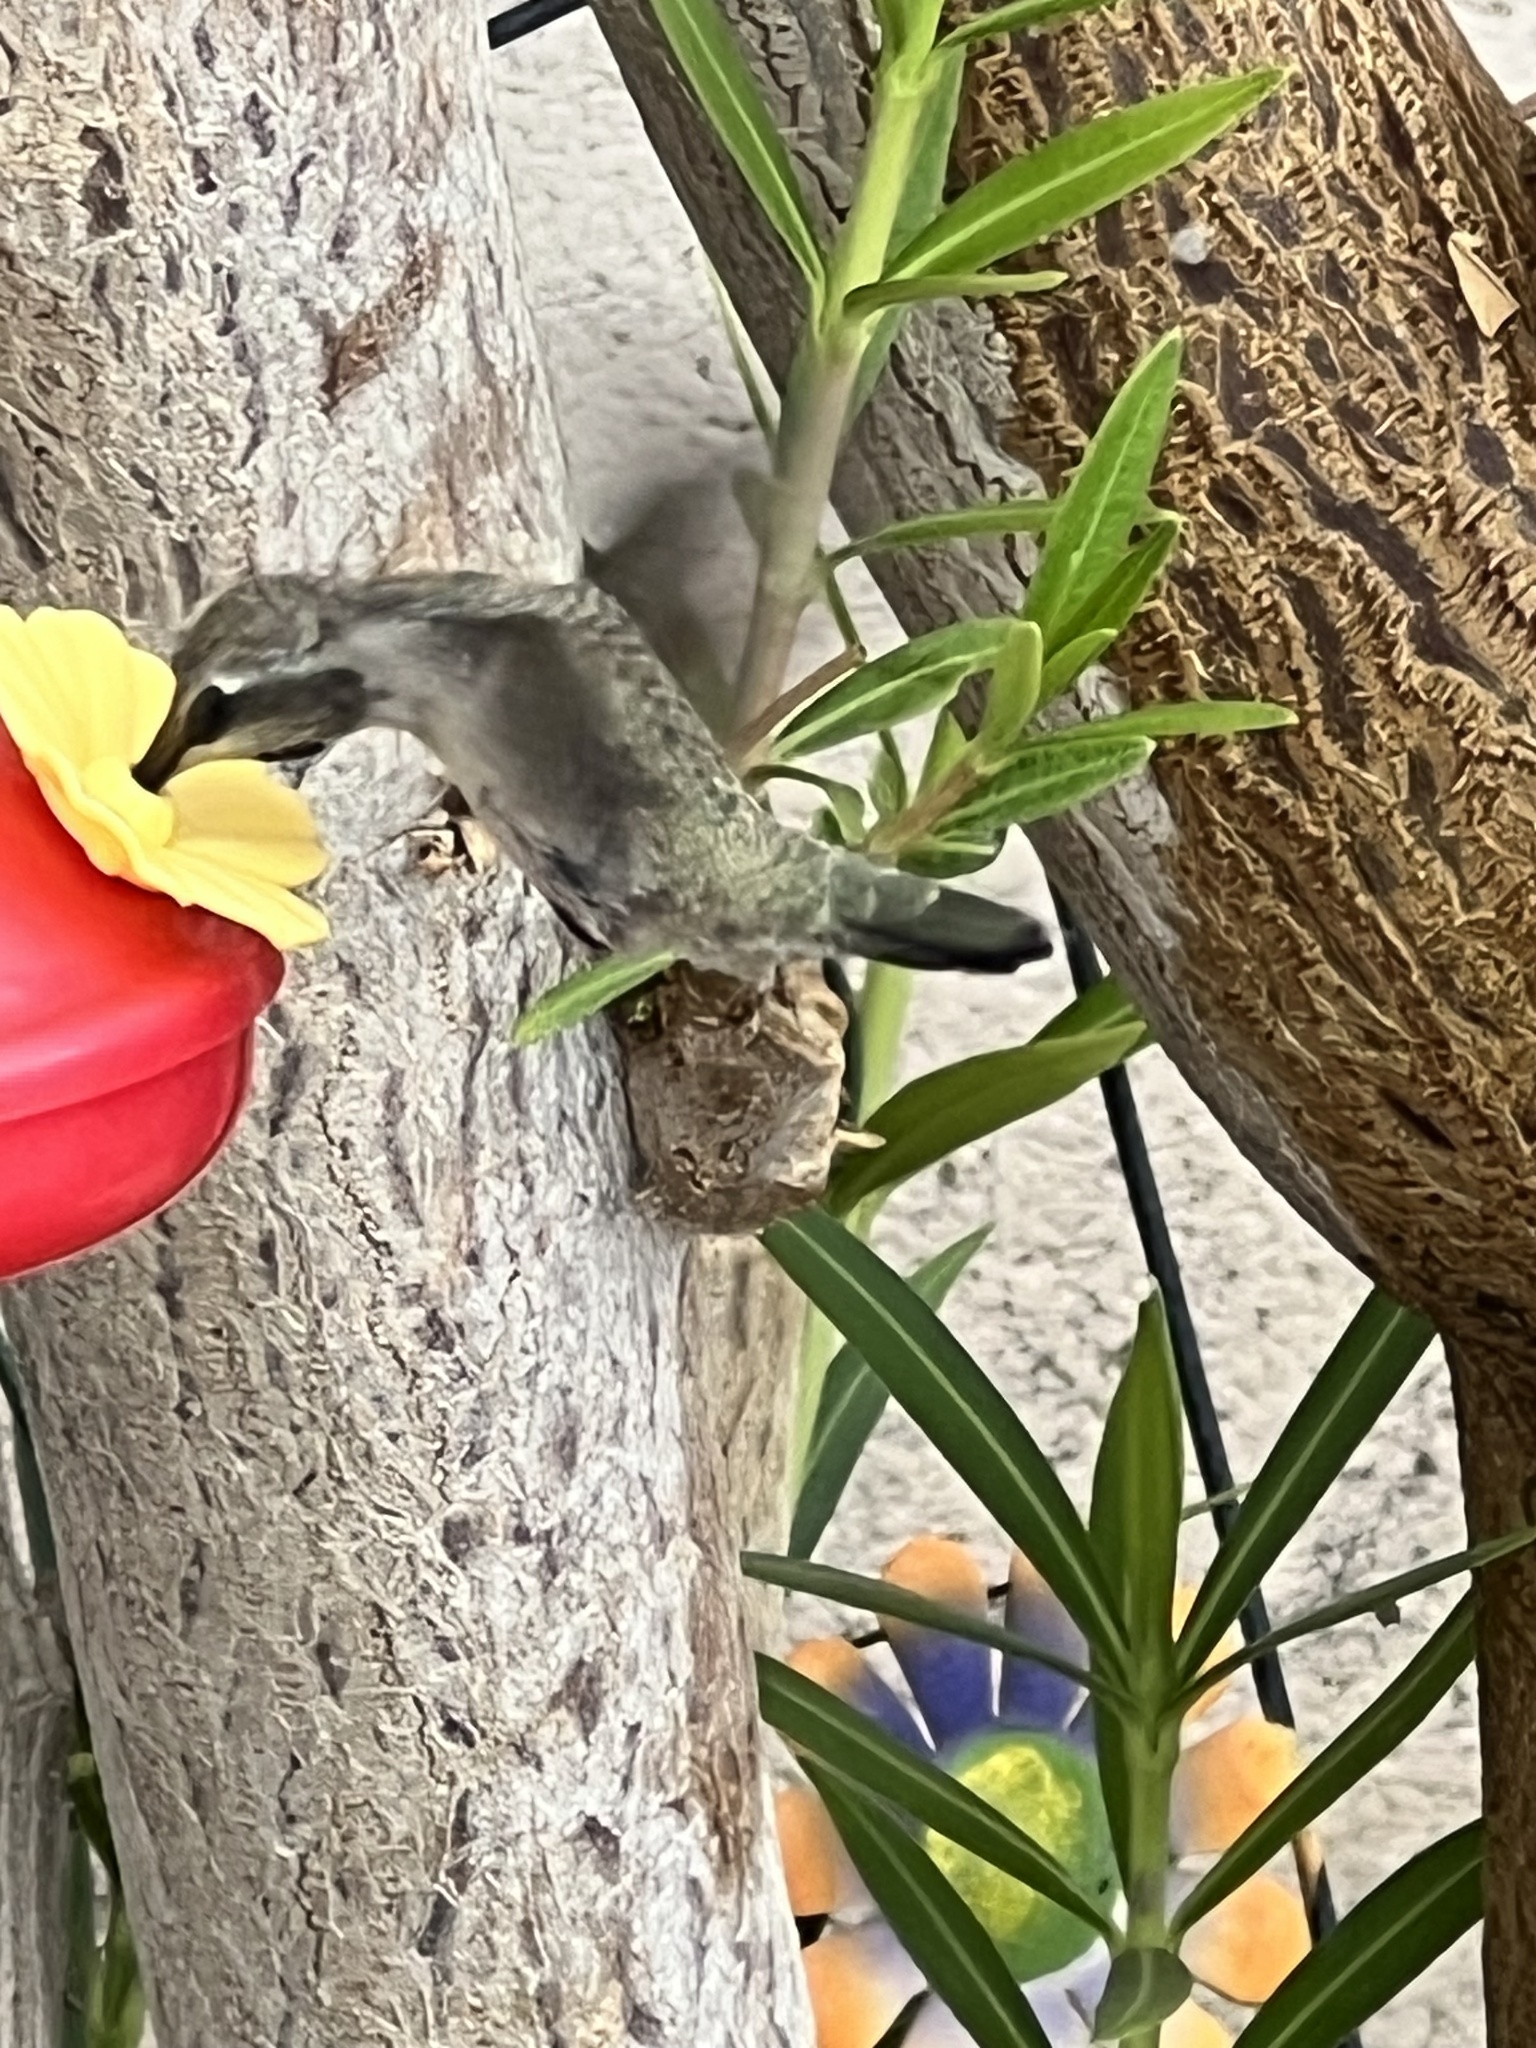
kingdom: Animalia
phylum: Chordata
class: Aves
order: Apodiformes
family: Trochilidae
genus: Calypte
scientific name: Calypte costae
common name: Costa's hummingbird
